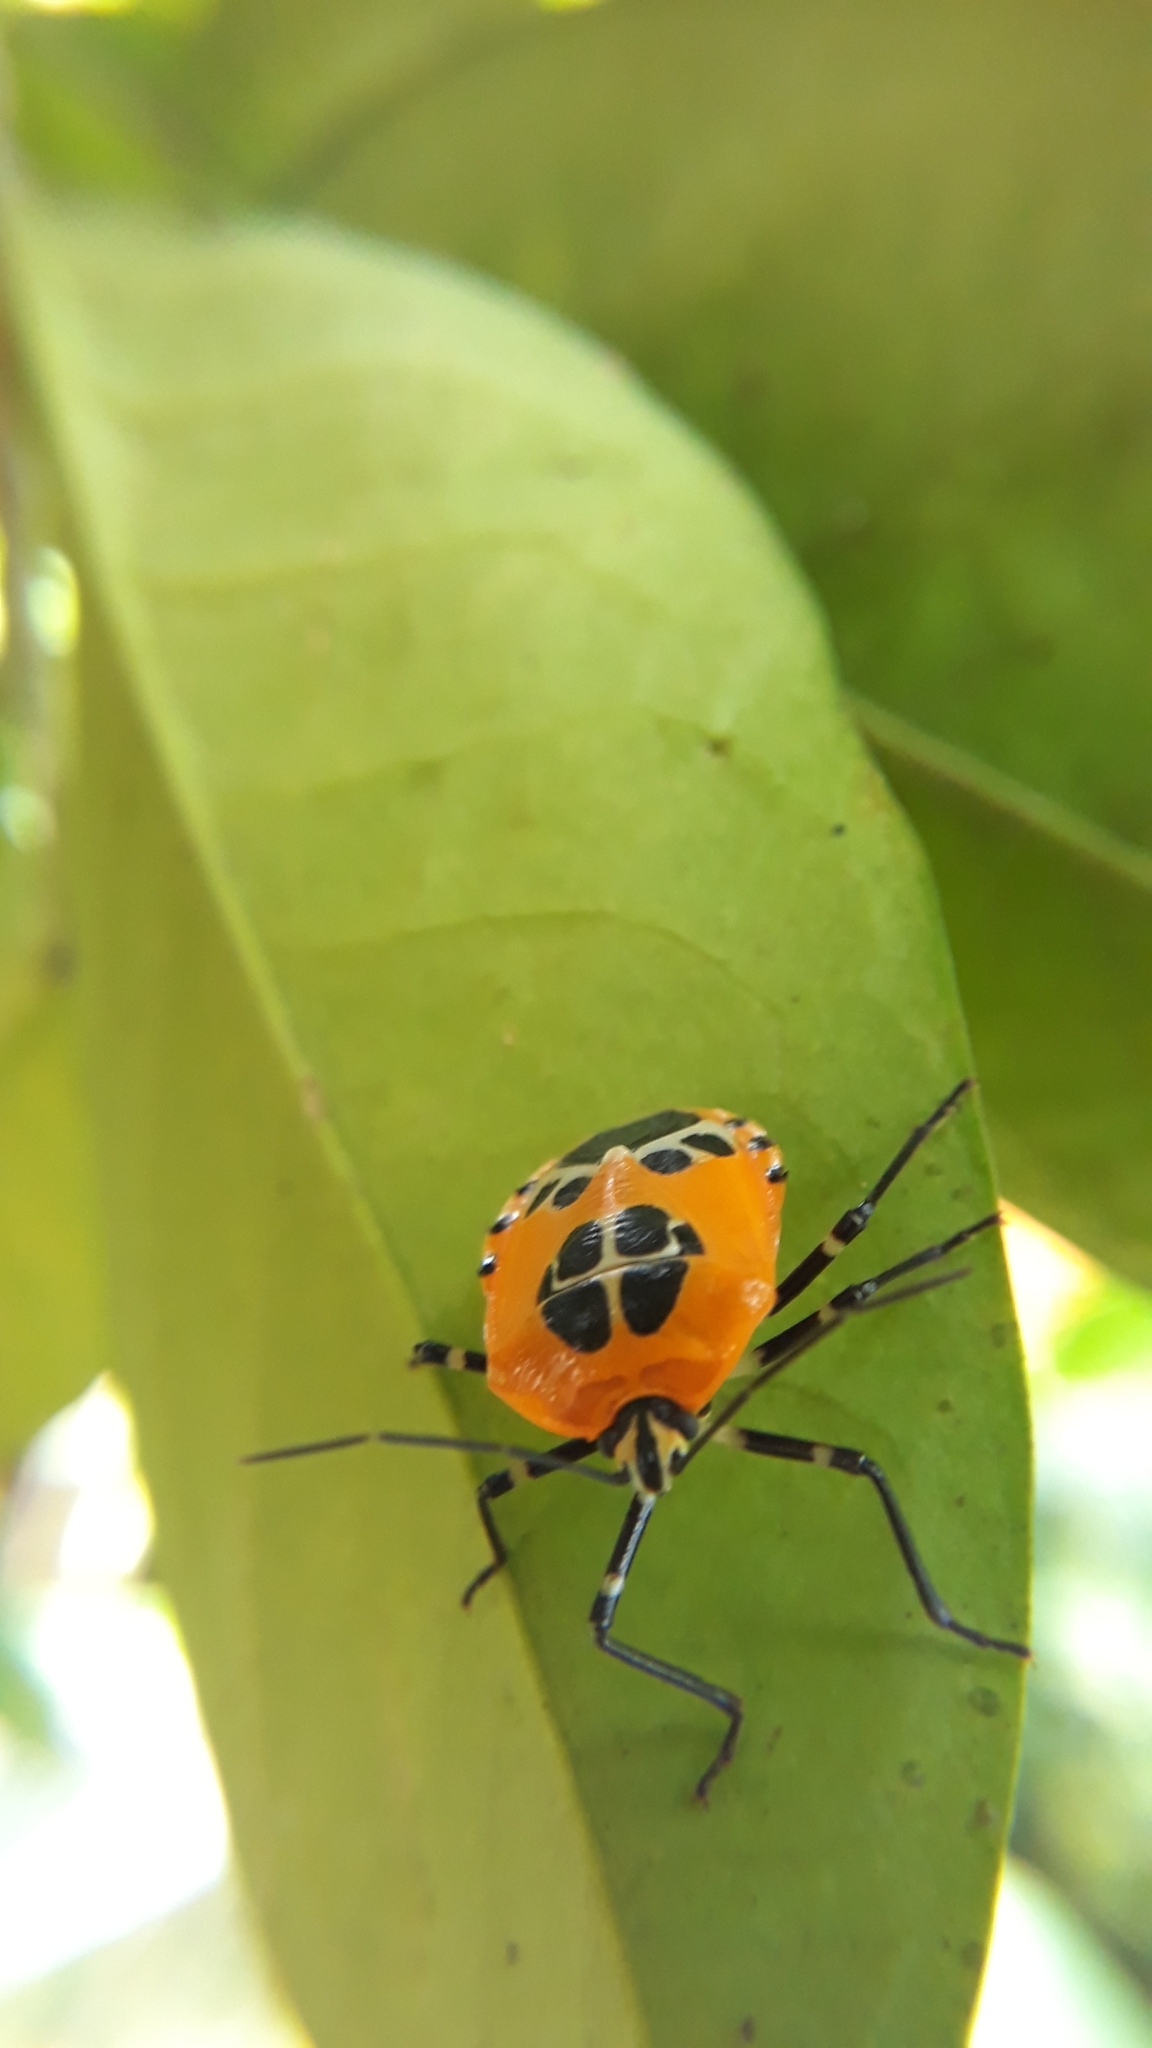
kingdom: Animalia
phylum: Arthropoda
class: Insecta
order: Hemiptera
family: Pentatomidae
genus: Runibia
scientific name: Runibia decorata
